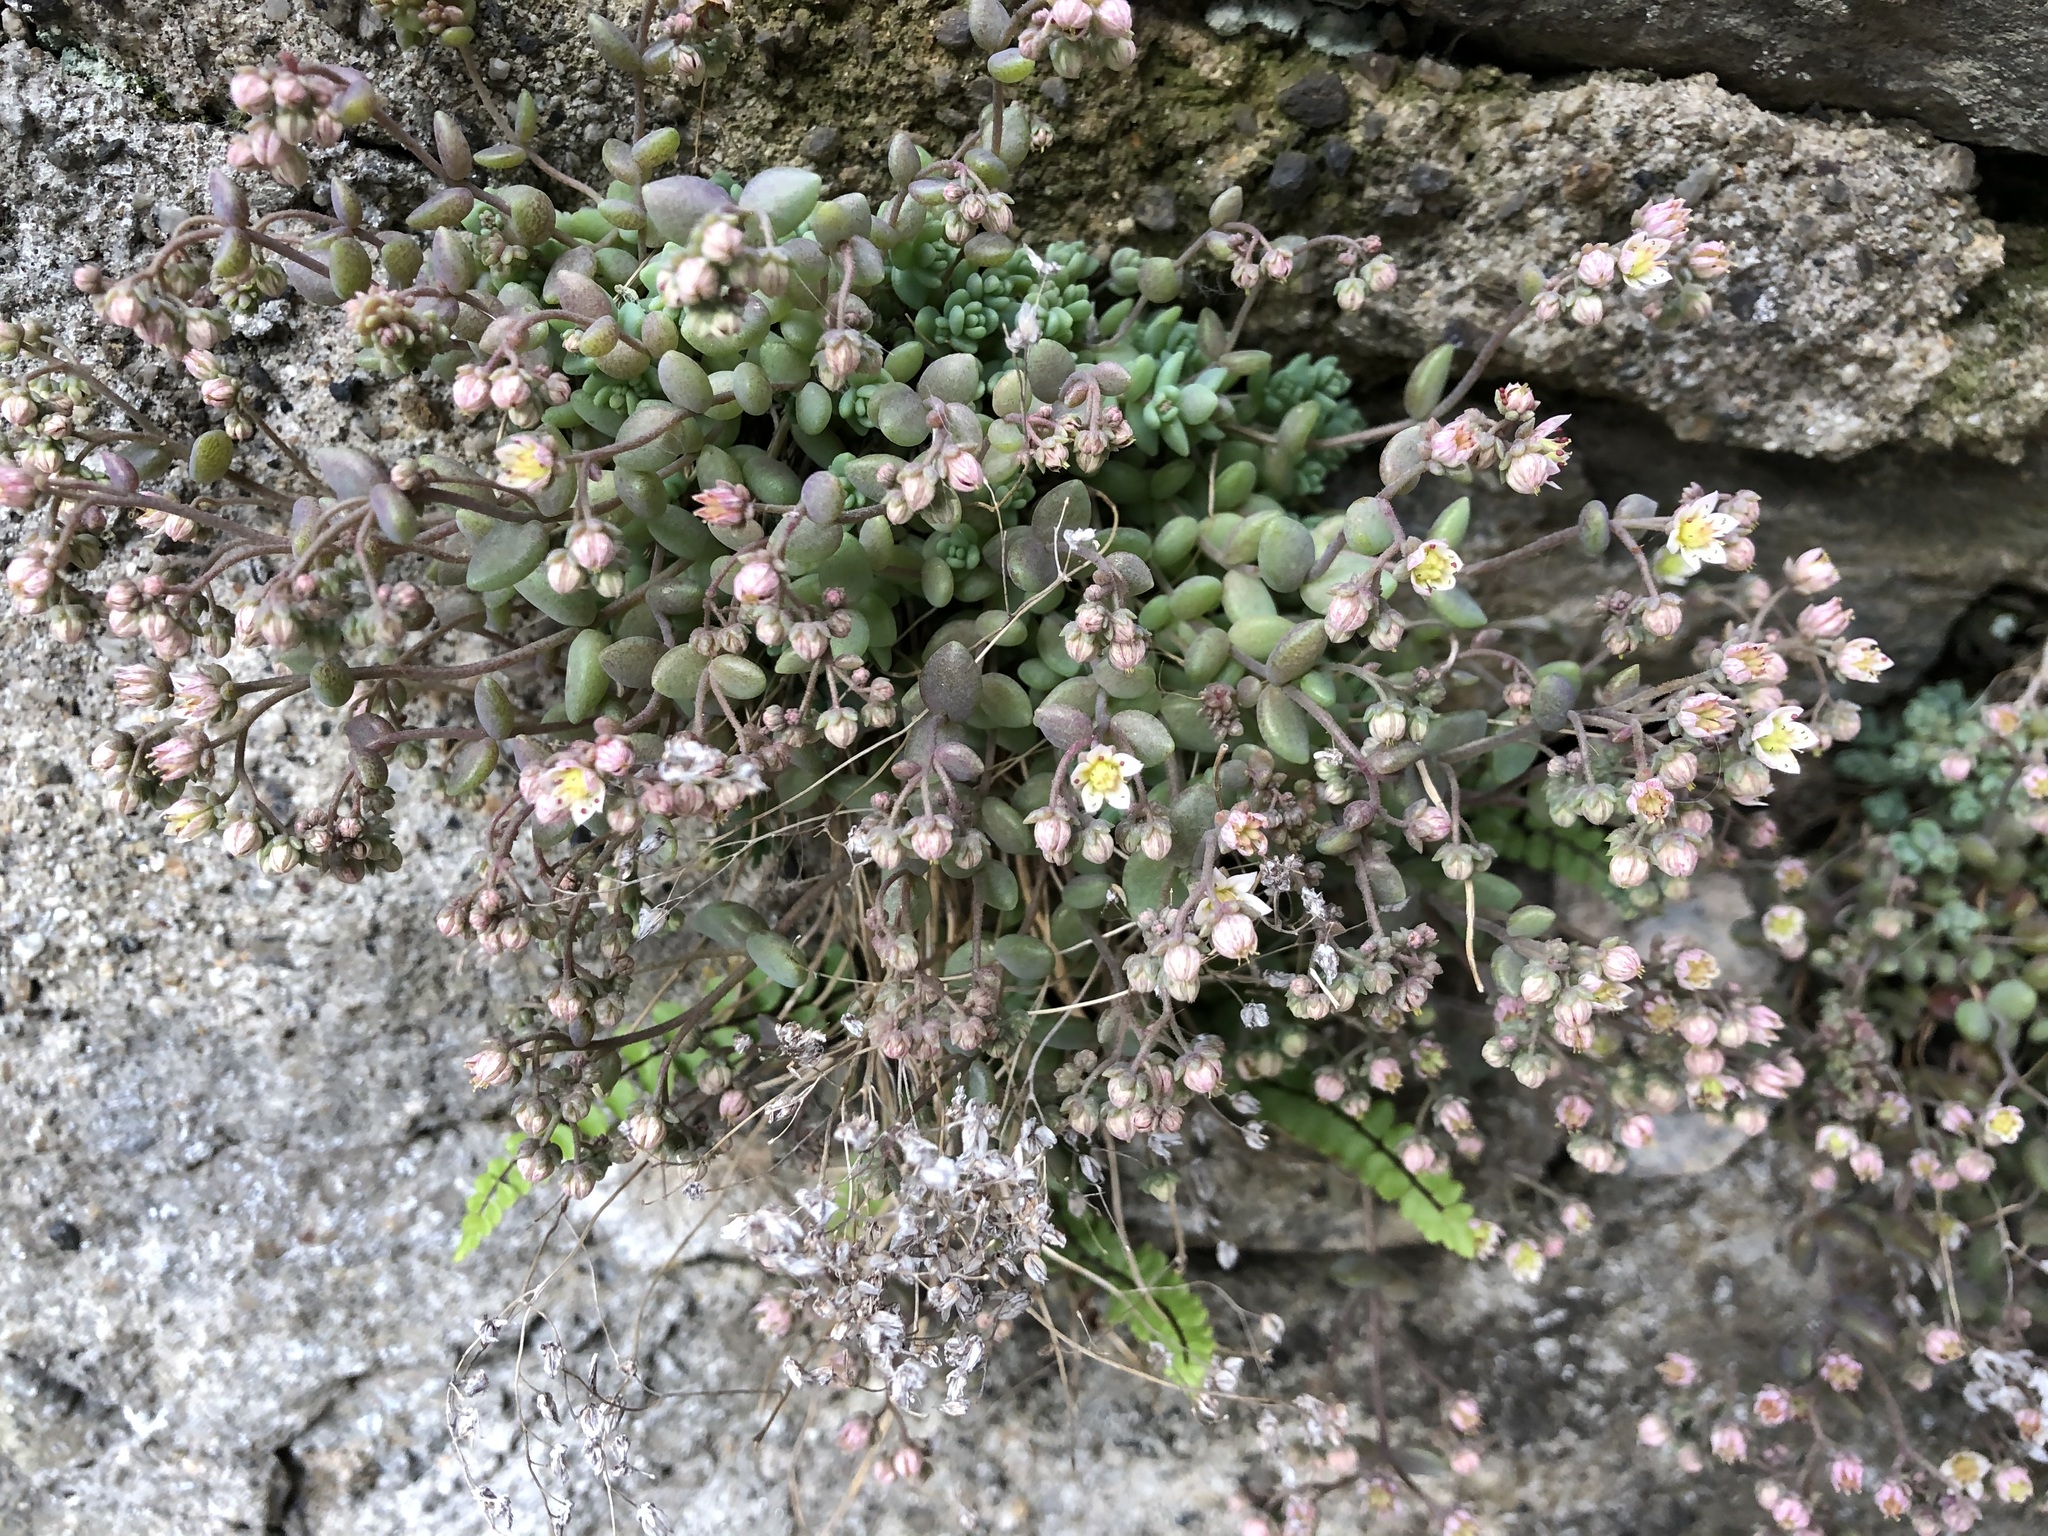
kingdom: Plantae
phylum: Tracheophyta
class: Magnoliopsida
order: Saxifragales
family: Crassulaceae
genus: Sedum
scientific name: Sedum dasyphyllum
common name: Thick-leaf stonecrop
